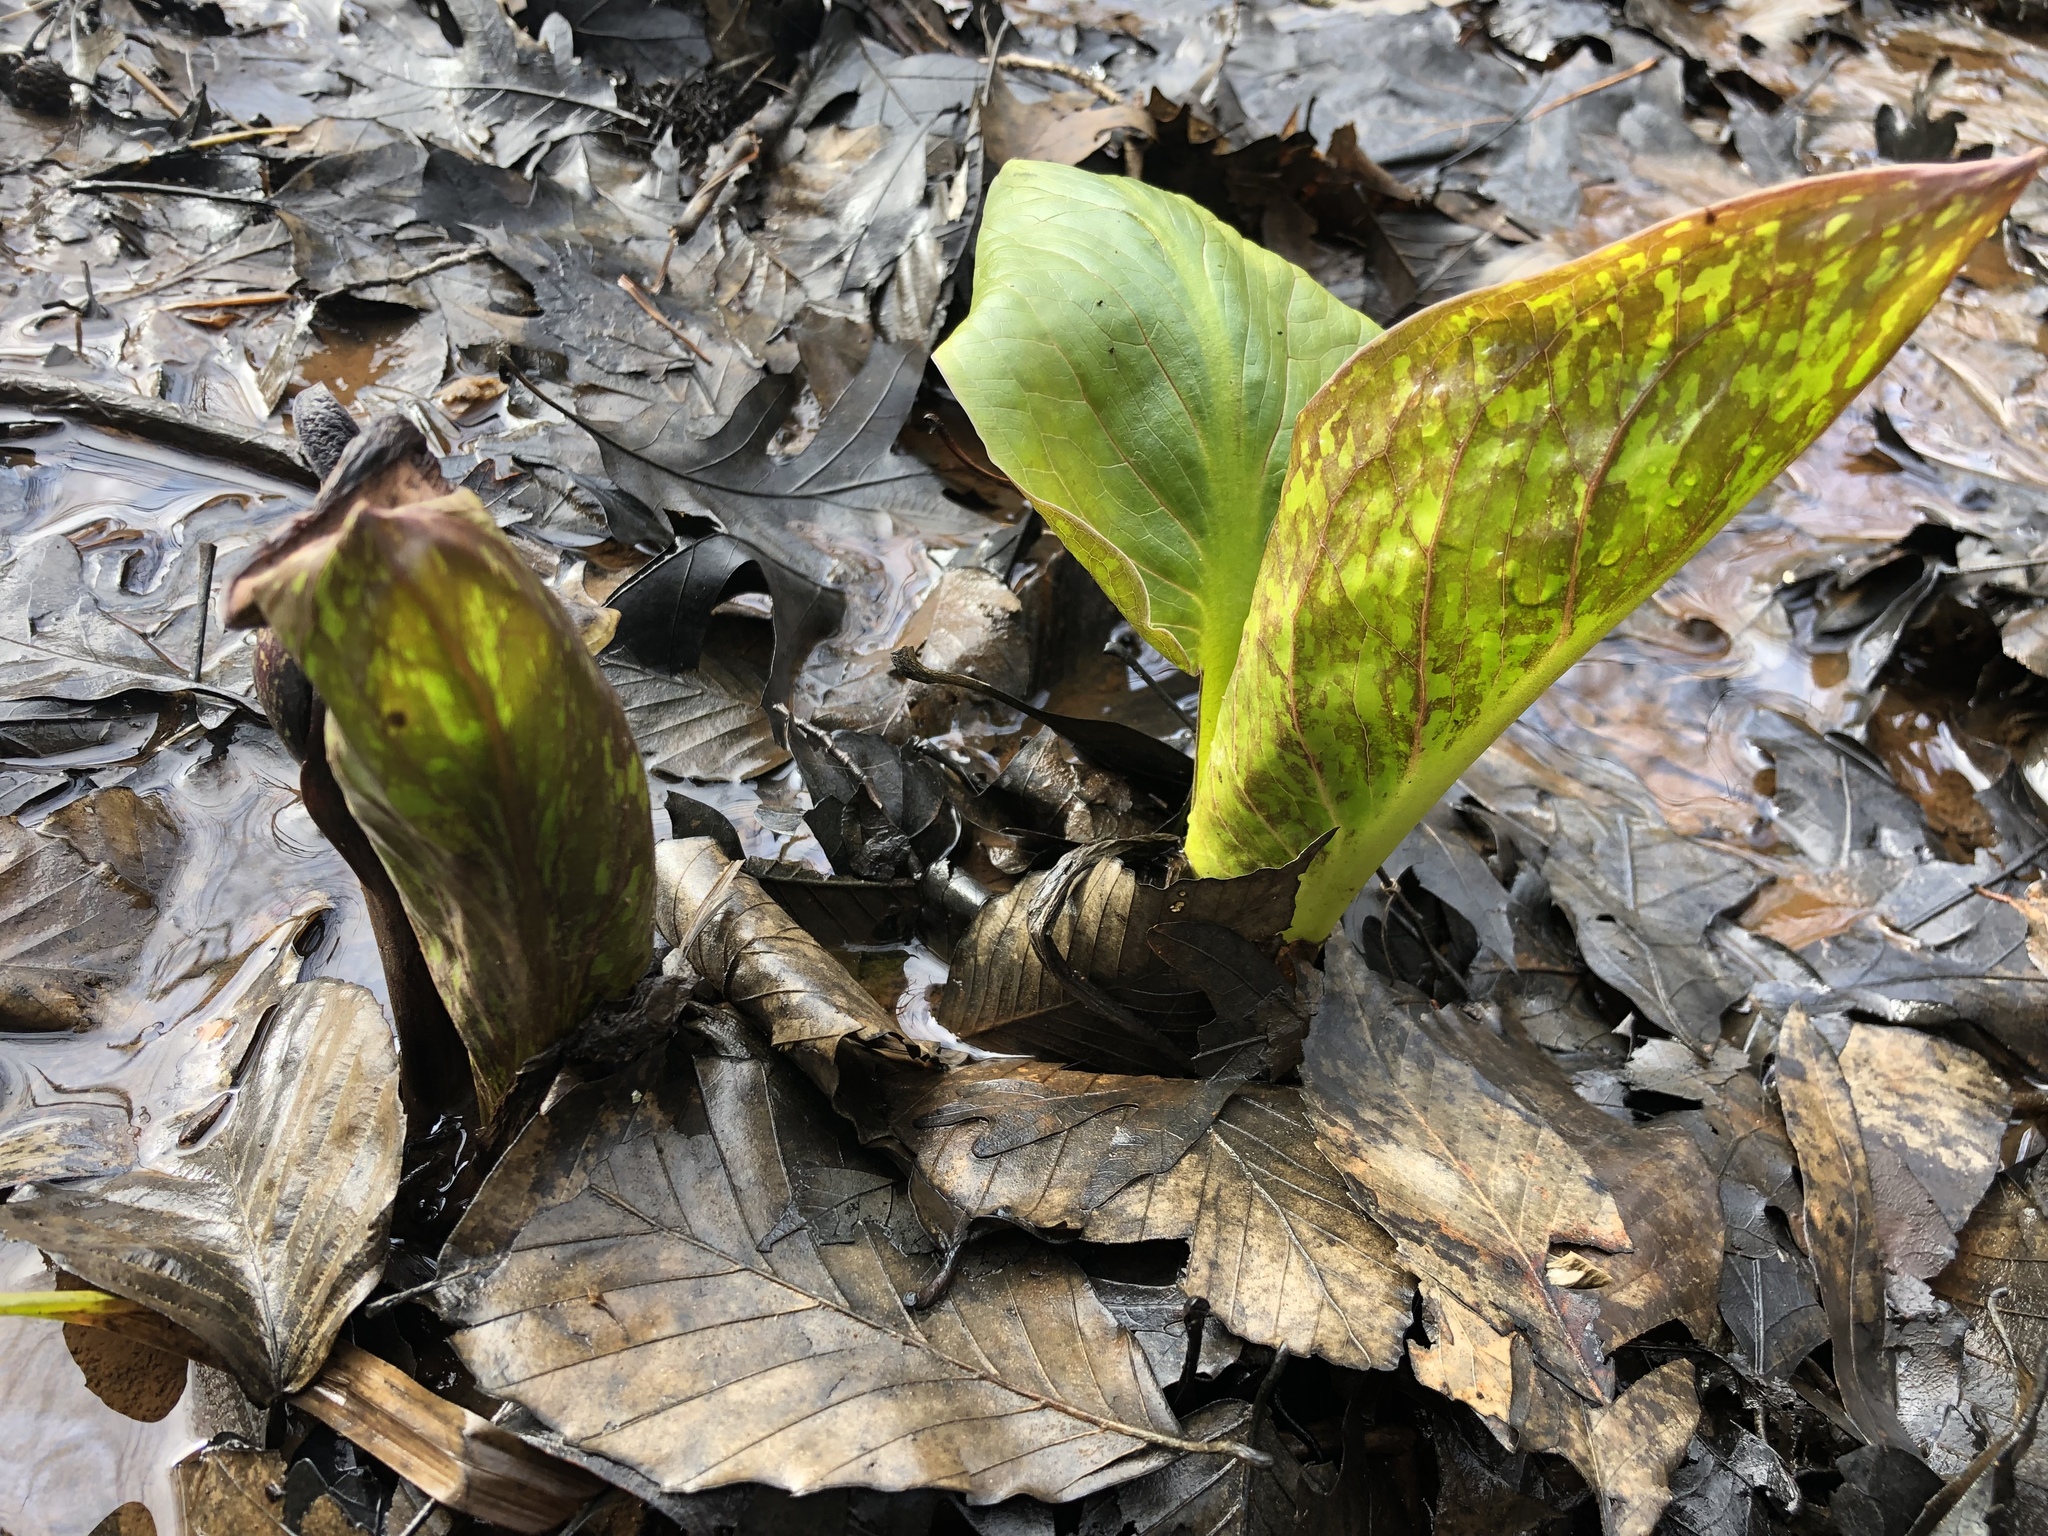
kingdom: Plantae
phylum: Tracheophyta
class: Liliopsida
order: Alismatales
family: Araceae
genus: Symplocarpus
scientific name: Symplocarpus foetidus
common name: Eastern skunk cabbage
